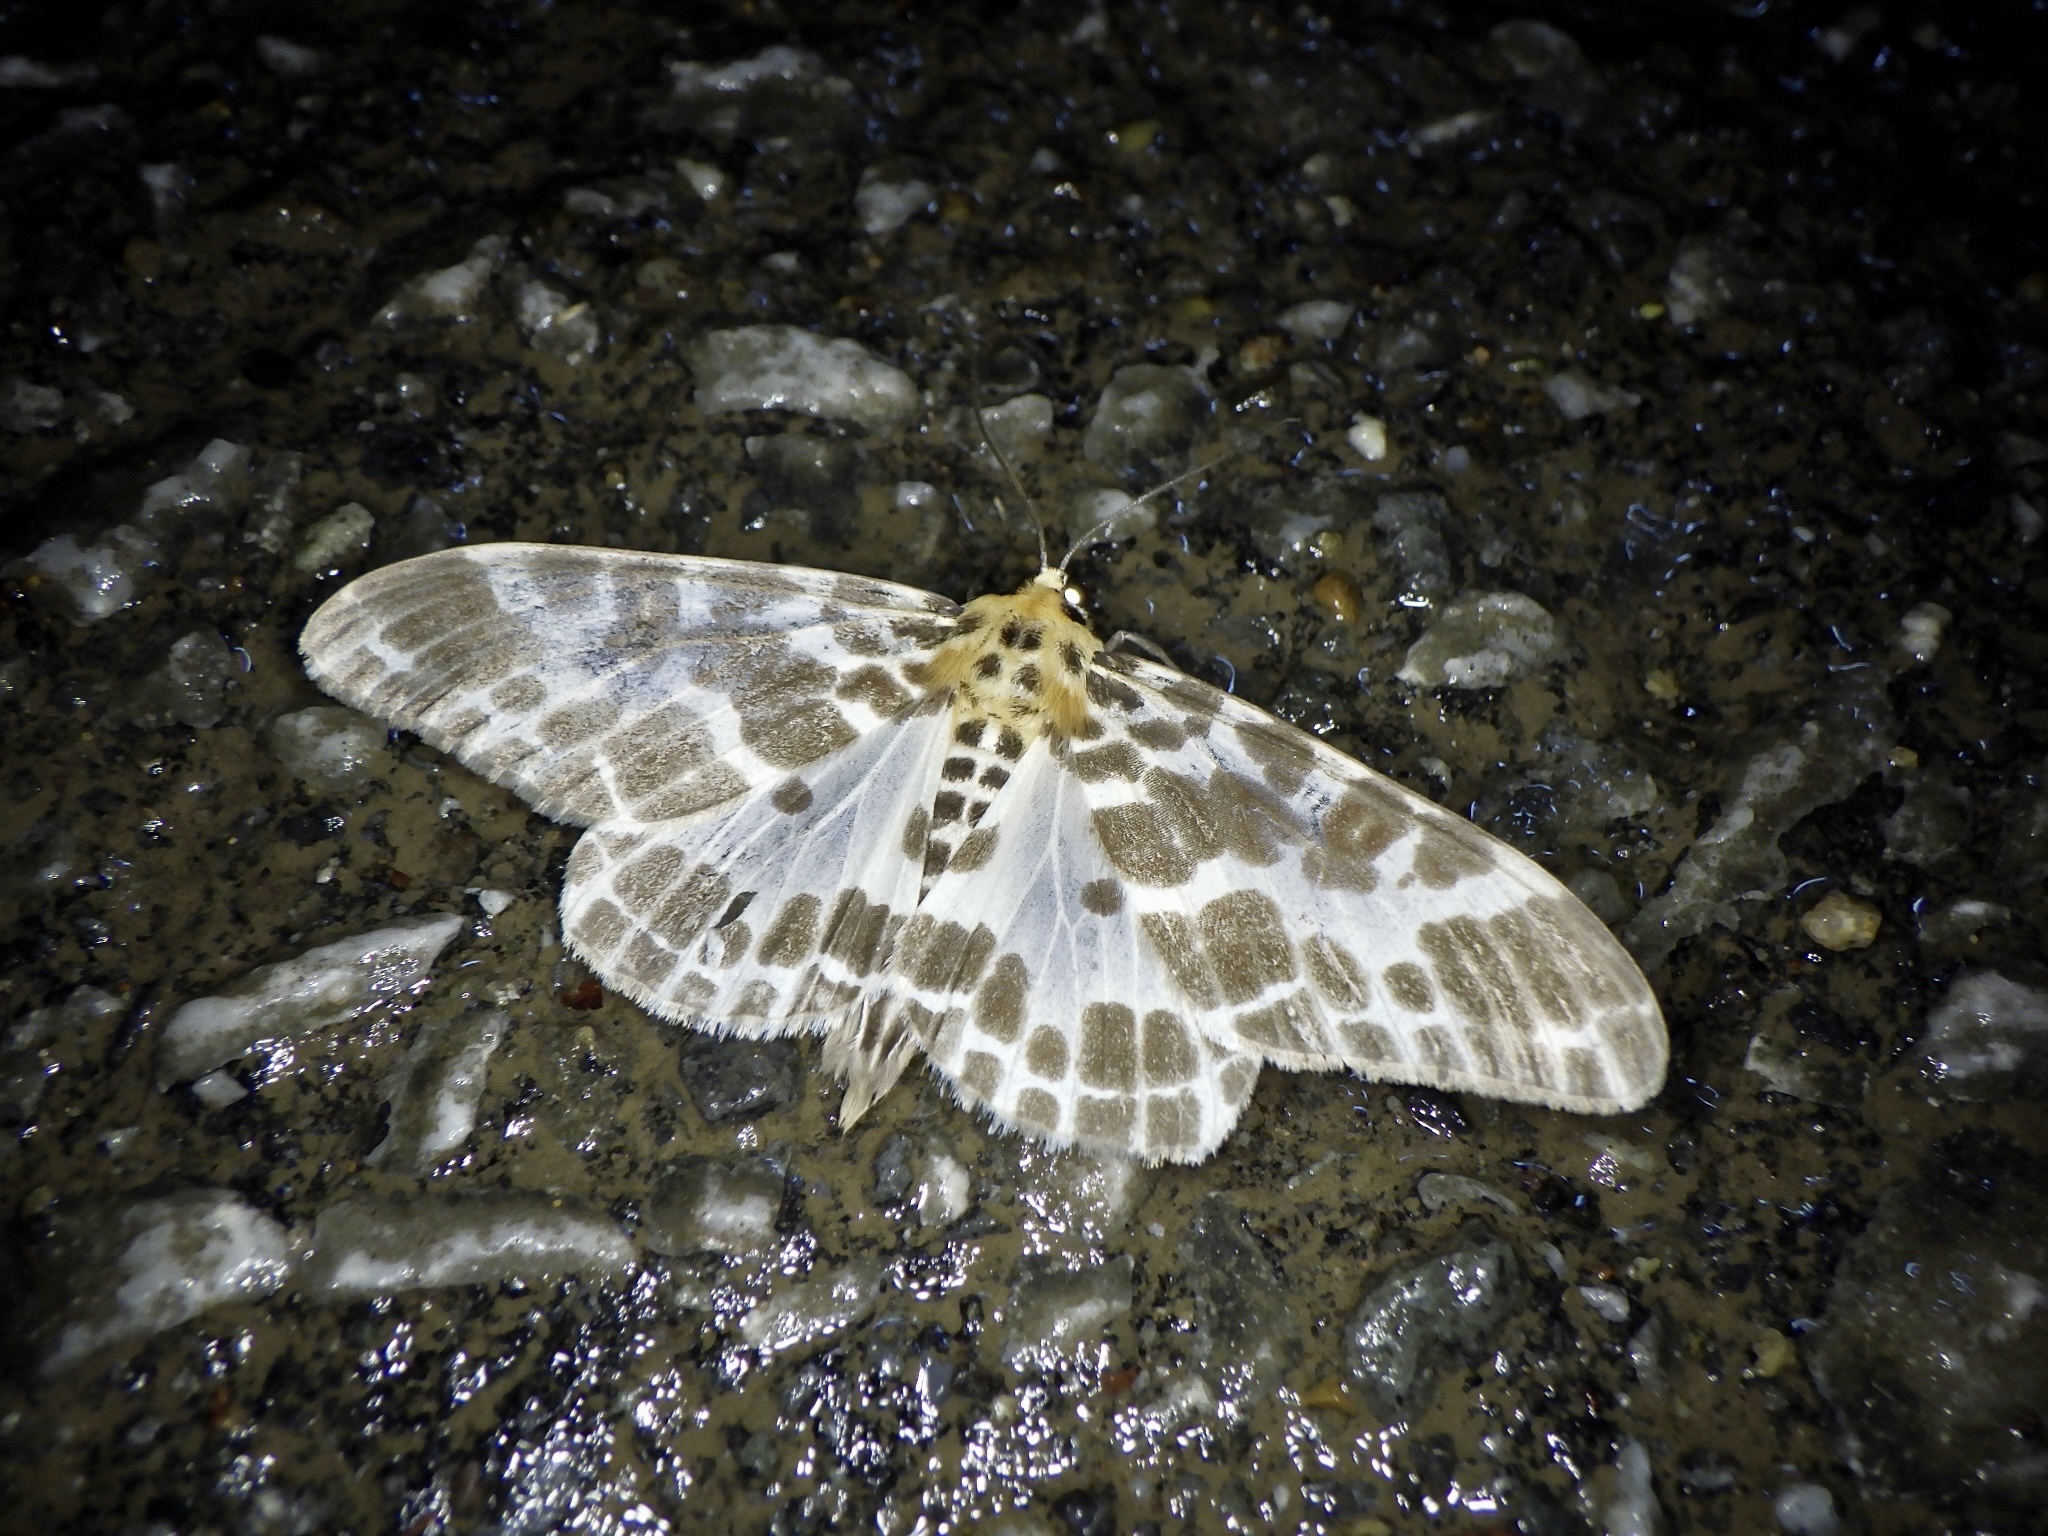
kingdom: Animalia
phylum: Arthropoda
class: Insecta
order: Lepidoptera
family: Geometridae
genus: Pogonopygia
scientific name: Pogonopygia nigralbata
